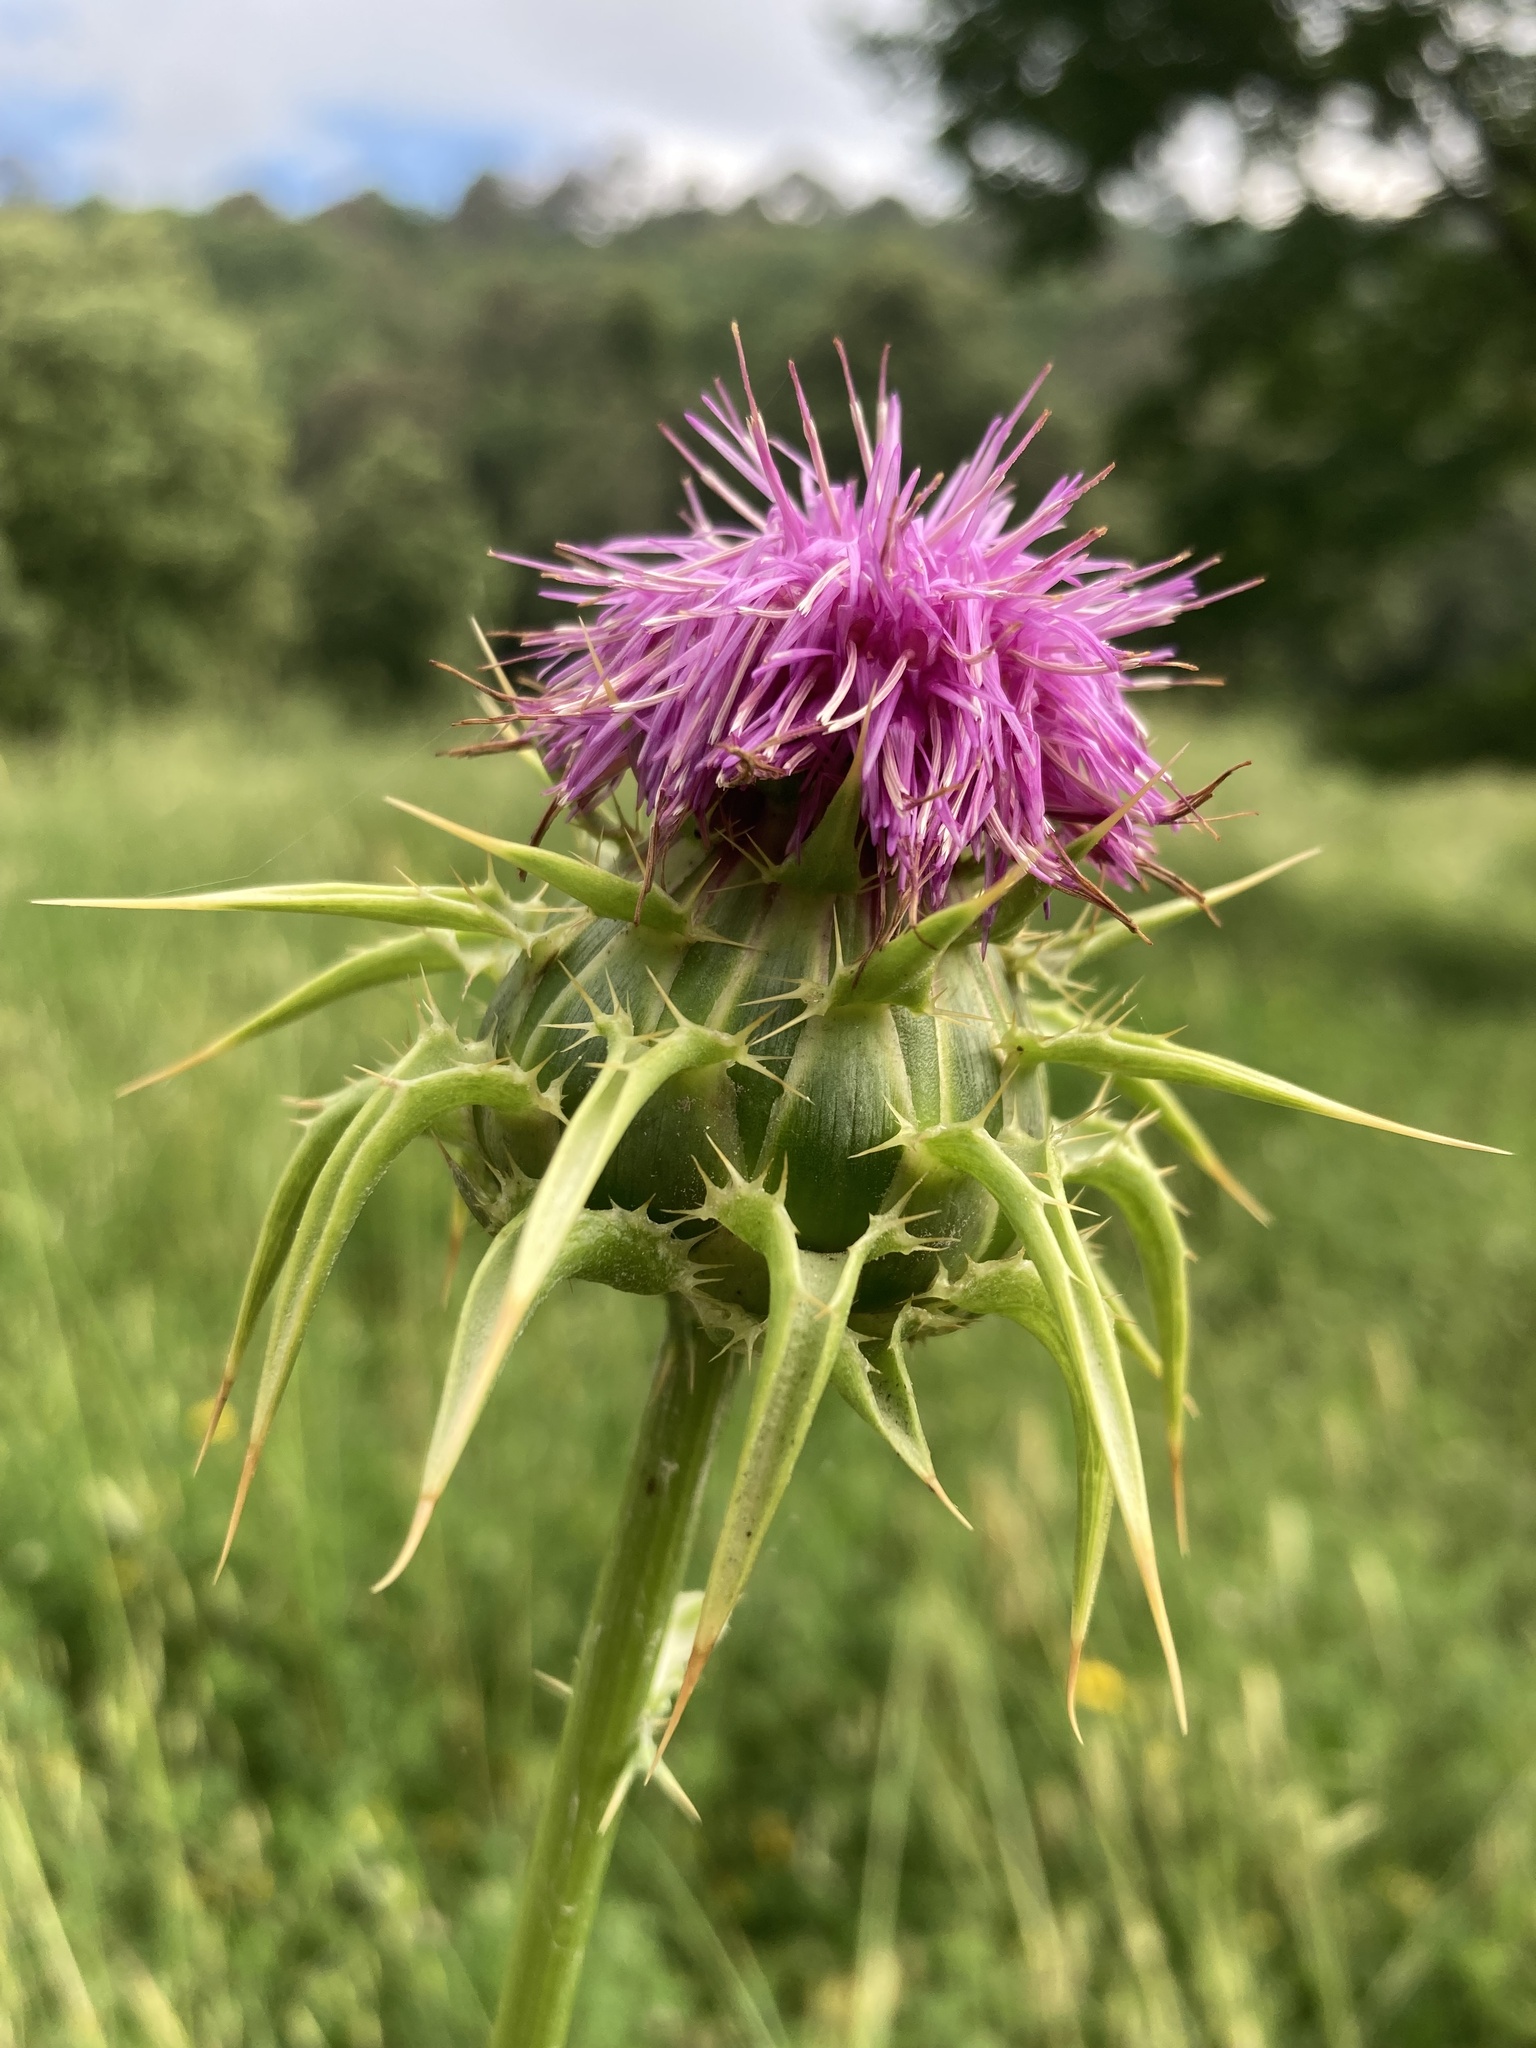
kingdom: Plantae
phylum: Tracheophyta
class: Magnoliopsida
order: Asterales
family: Asteraceae
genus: Silybum
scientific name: Silybum marianum
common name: Milk thistle
